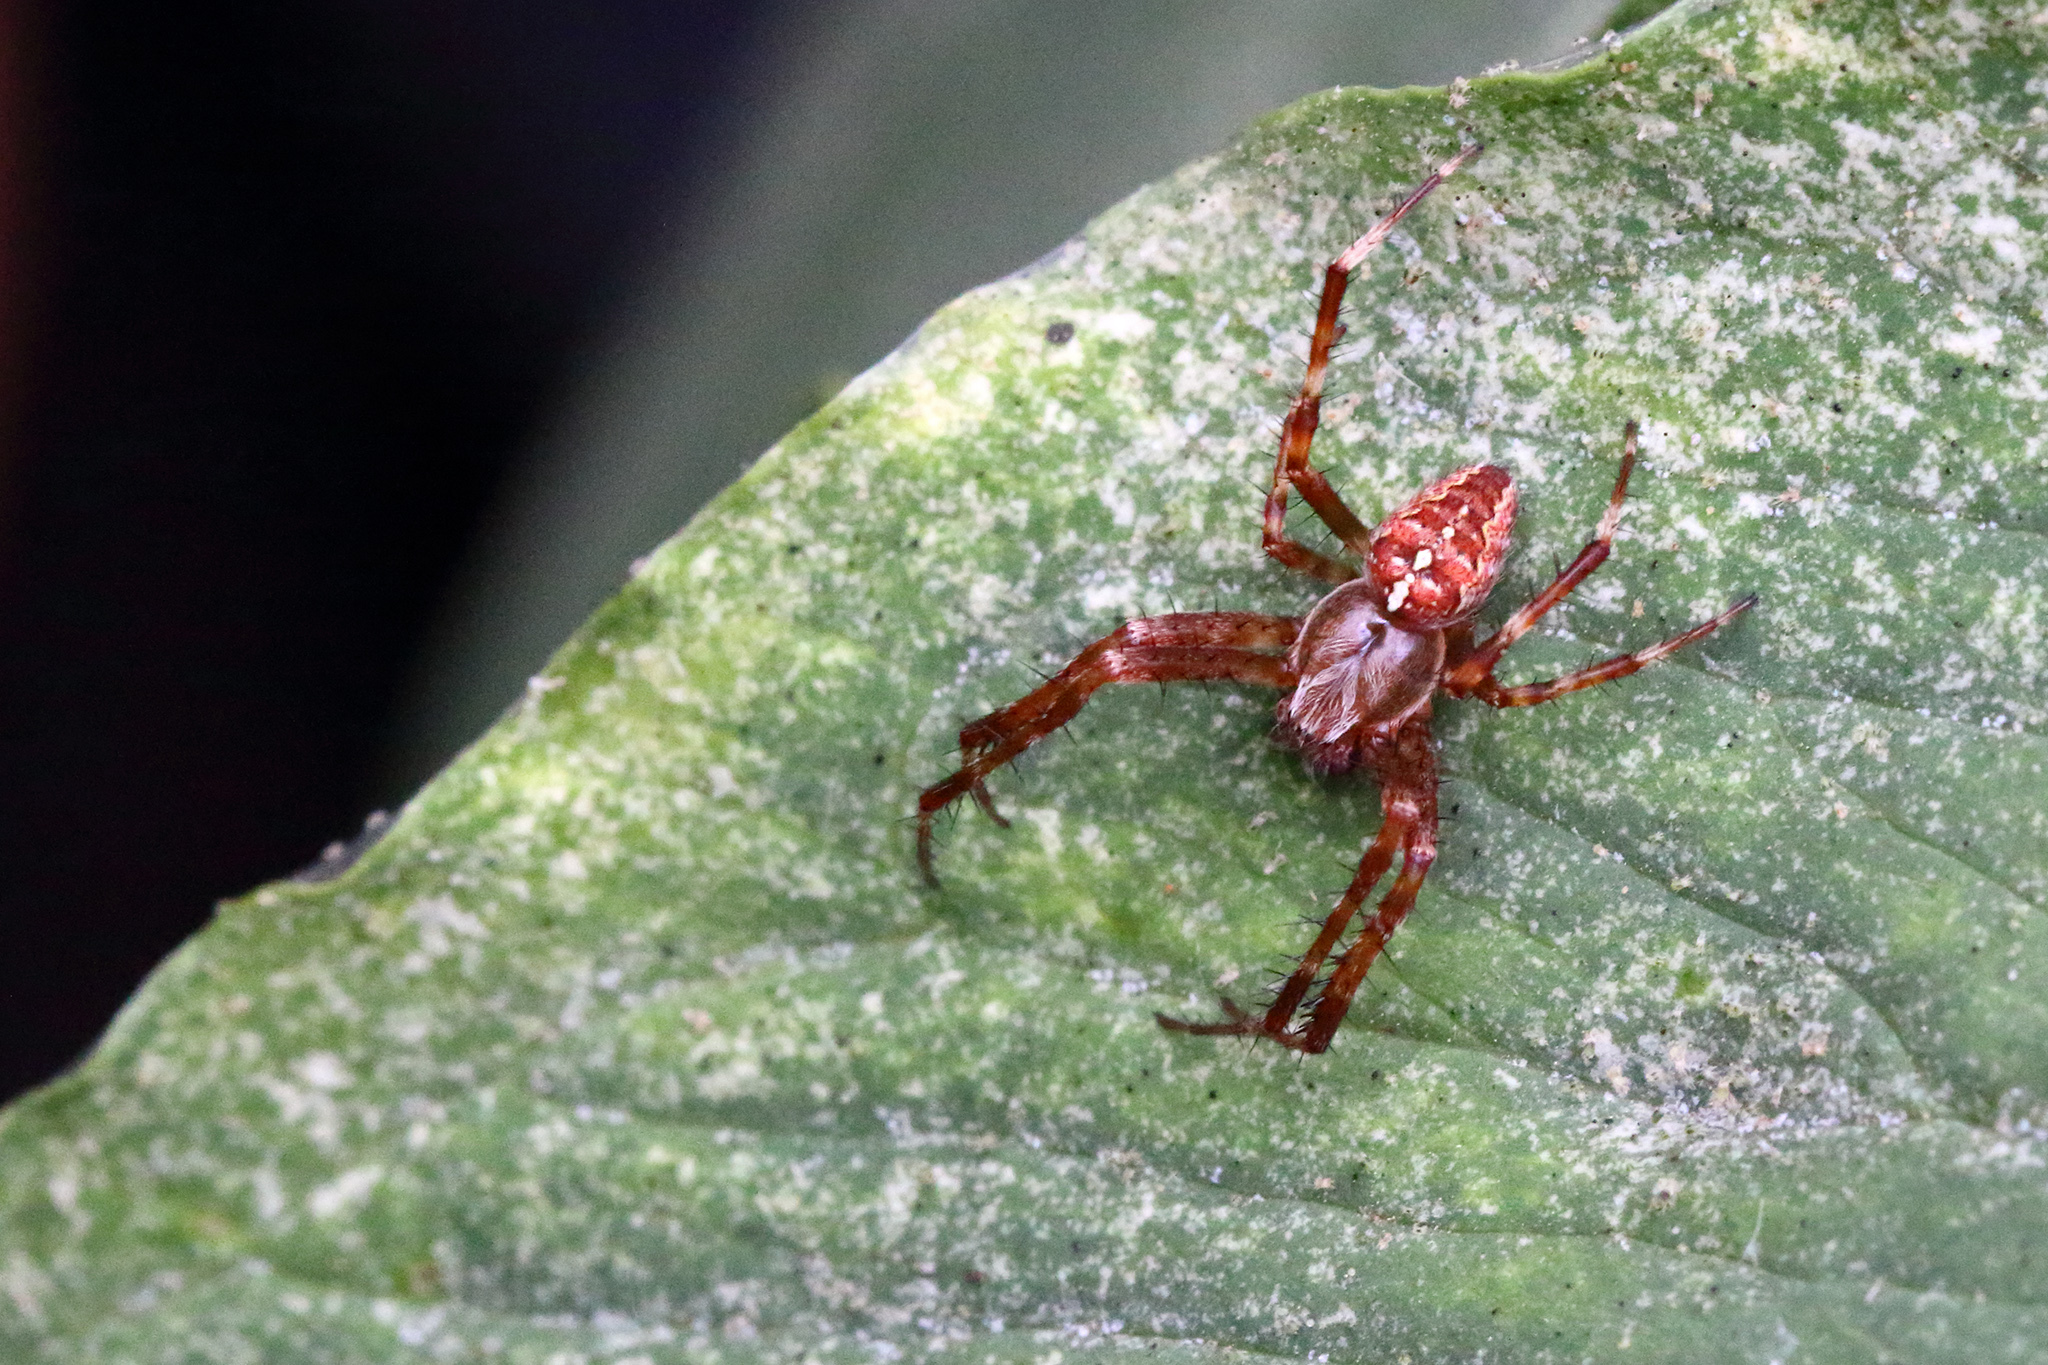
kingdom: Animalia
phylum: Arthropoda
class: Arachnida
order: Araneae
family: Araneidae
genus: Araneus
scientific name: Araneus diadematus
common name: Cross orbweaver
